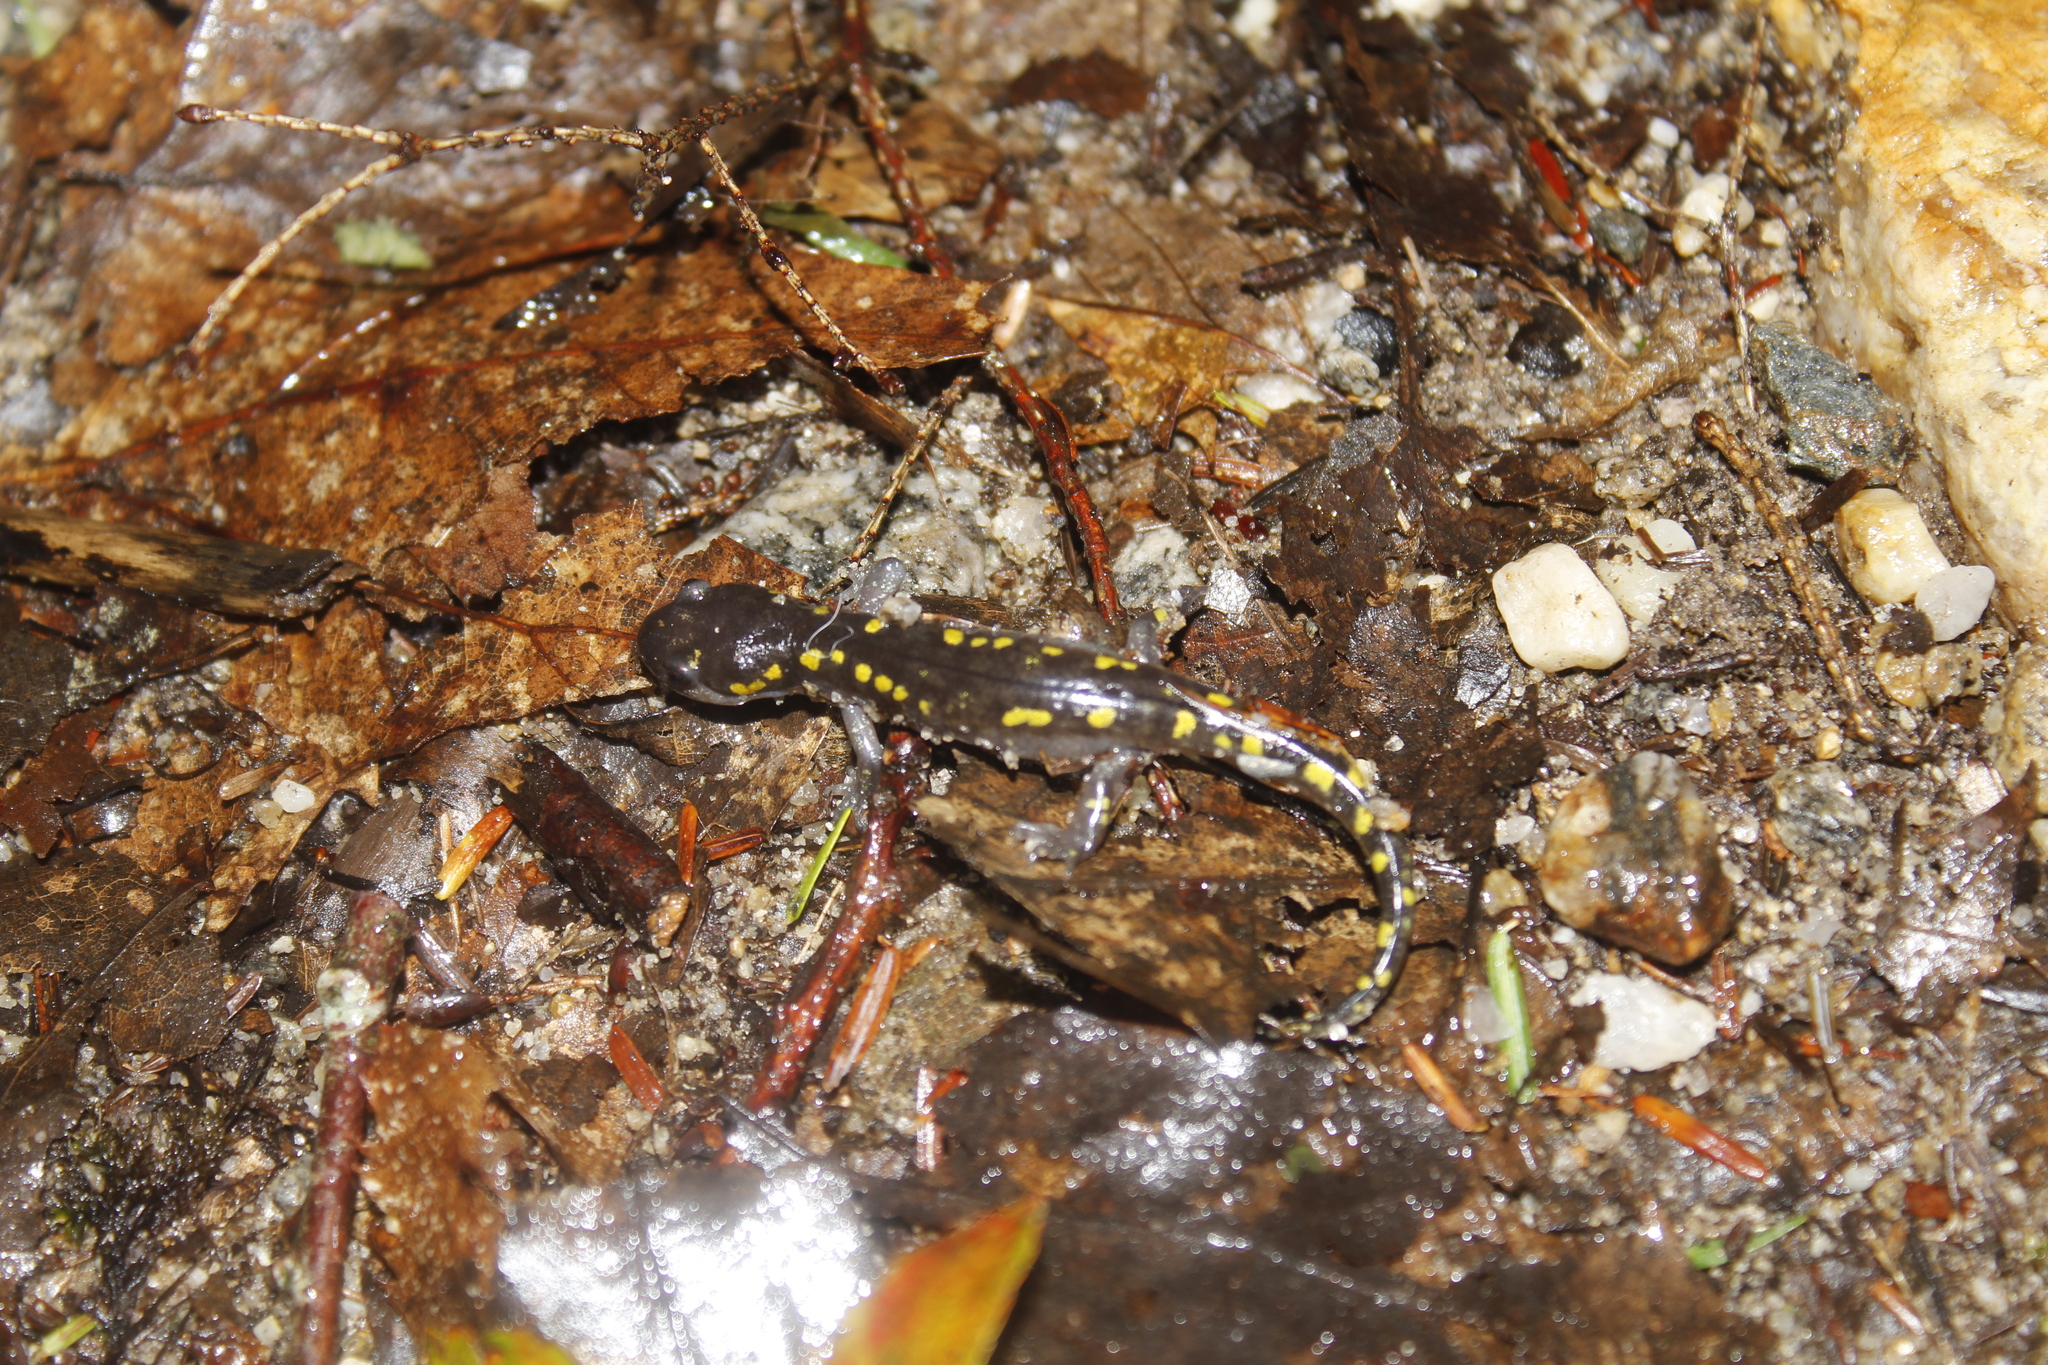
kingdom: Animalia
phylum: Chordata
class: Amphibia
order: Caudata
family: Ambystomatidae
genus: Ambystoma
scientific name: Ambystoma maculatum
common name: Spotted salamander
